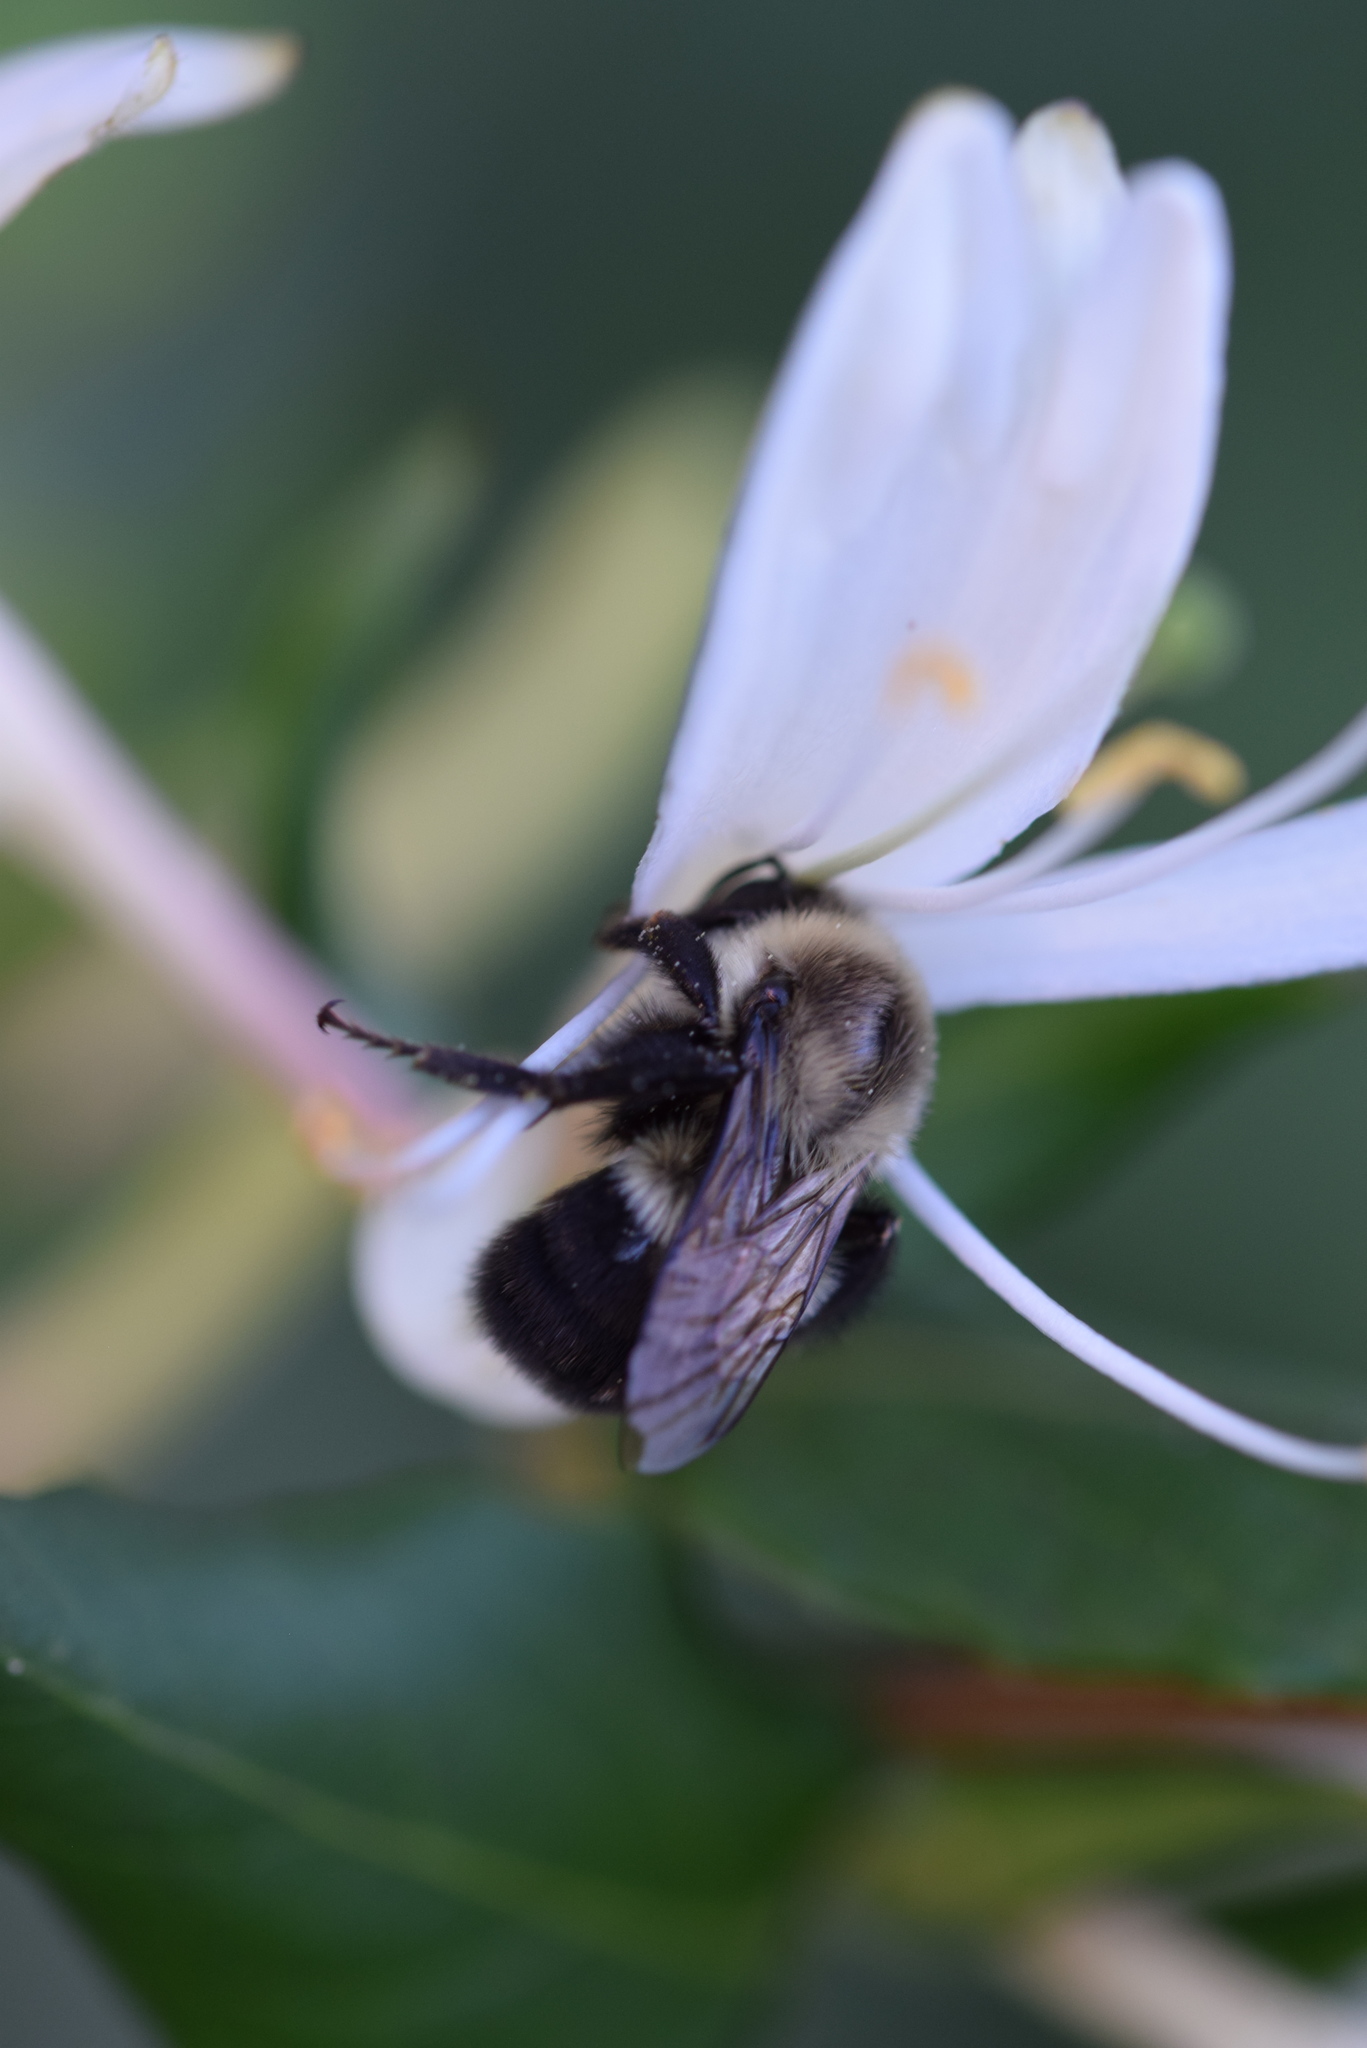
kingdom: Animalia
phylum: Arthropoda
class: Insecta
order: Hymenoptera
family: Apidae
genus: Bombus
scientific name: Bombus impatiens
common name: Common eastern bumble bee
